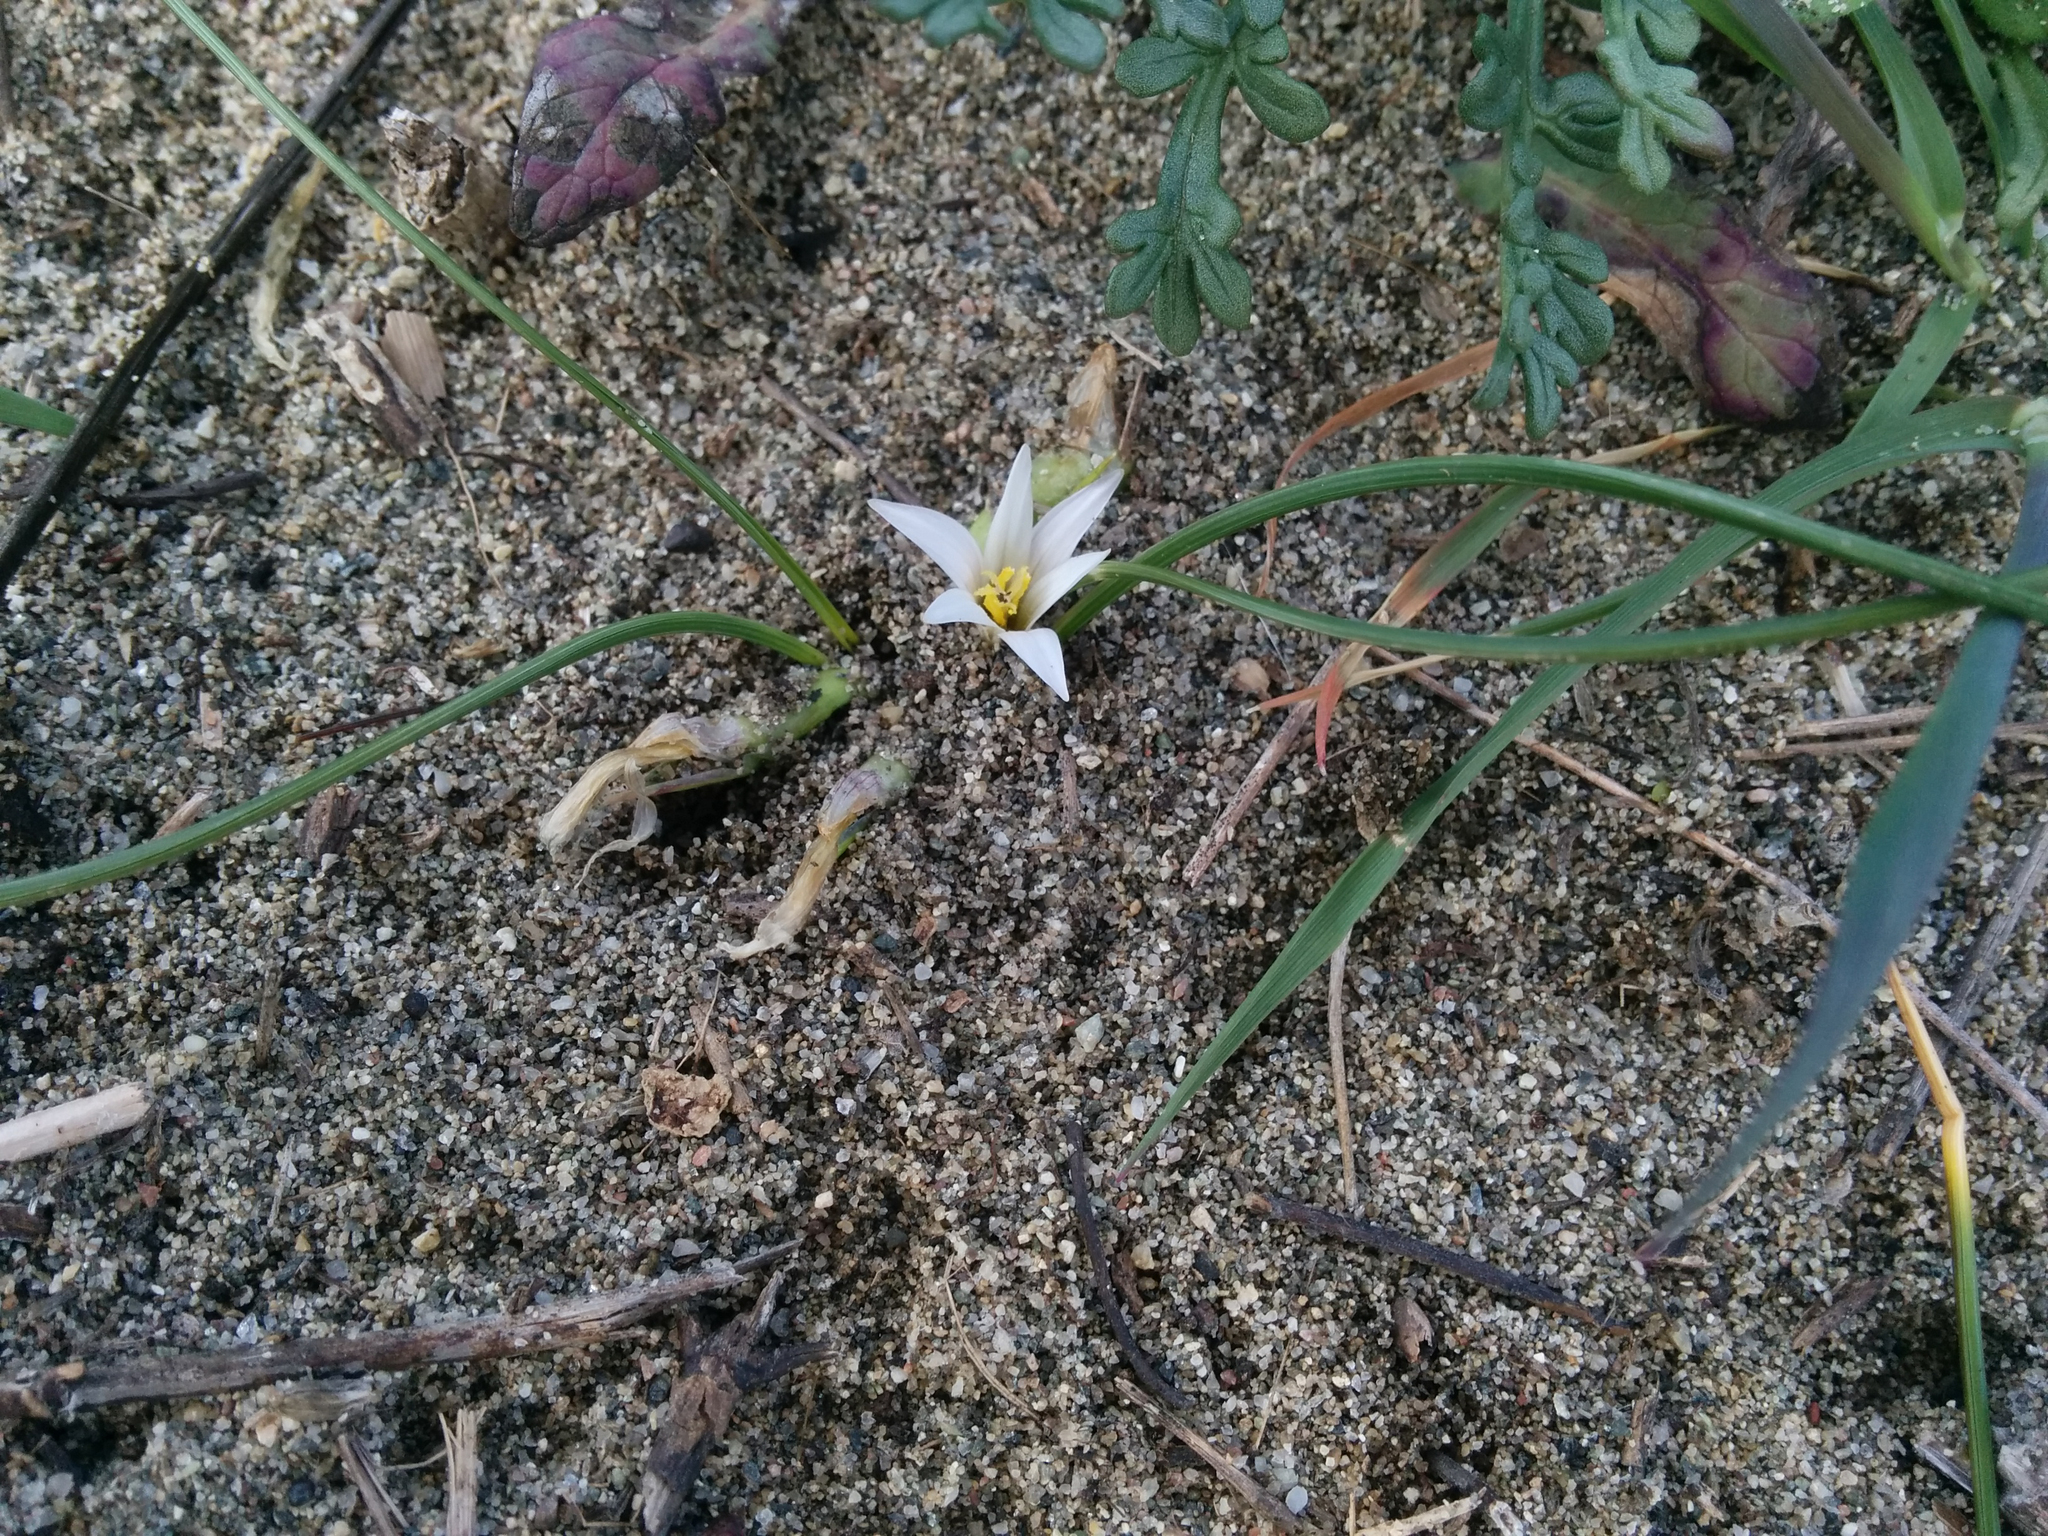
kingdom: Plantae
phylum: Tracheophyta
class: Liliopsida
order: Asparagales
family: Iridaceae
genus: Romulea
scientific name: Romulea columnae
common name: Sand-crocus
